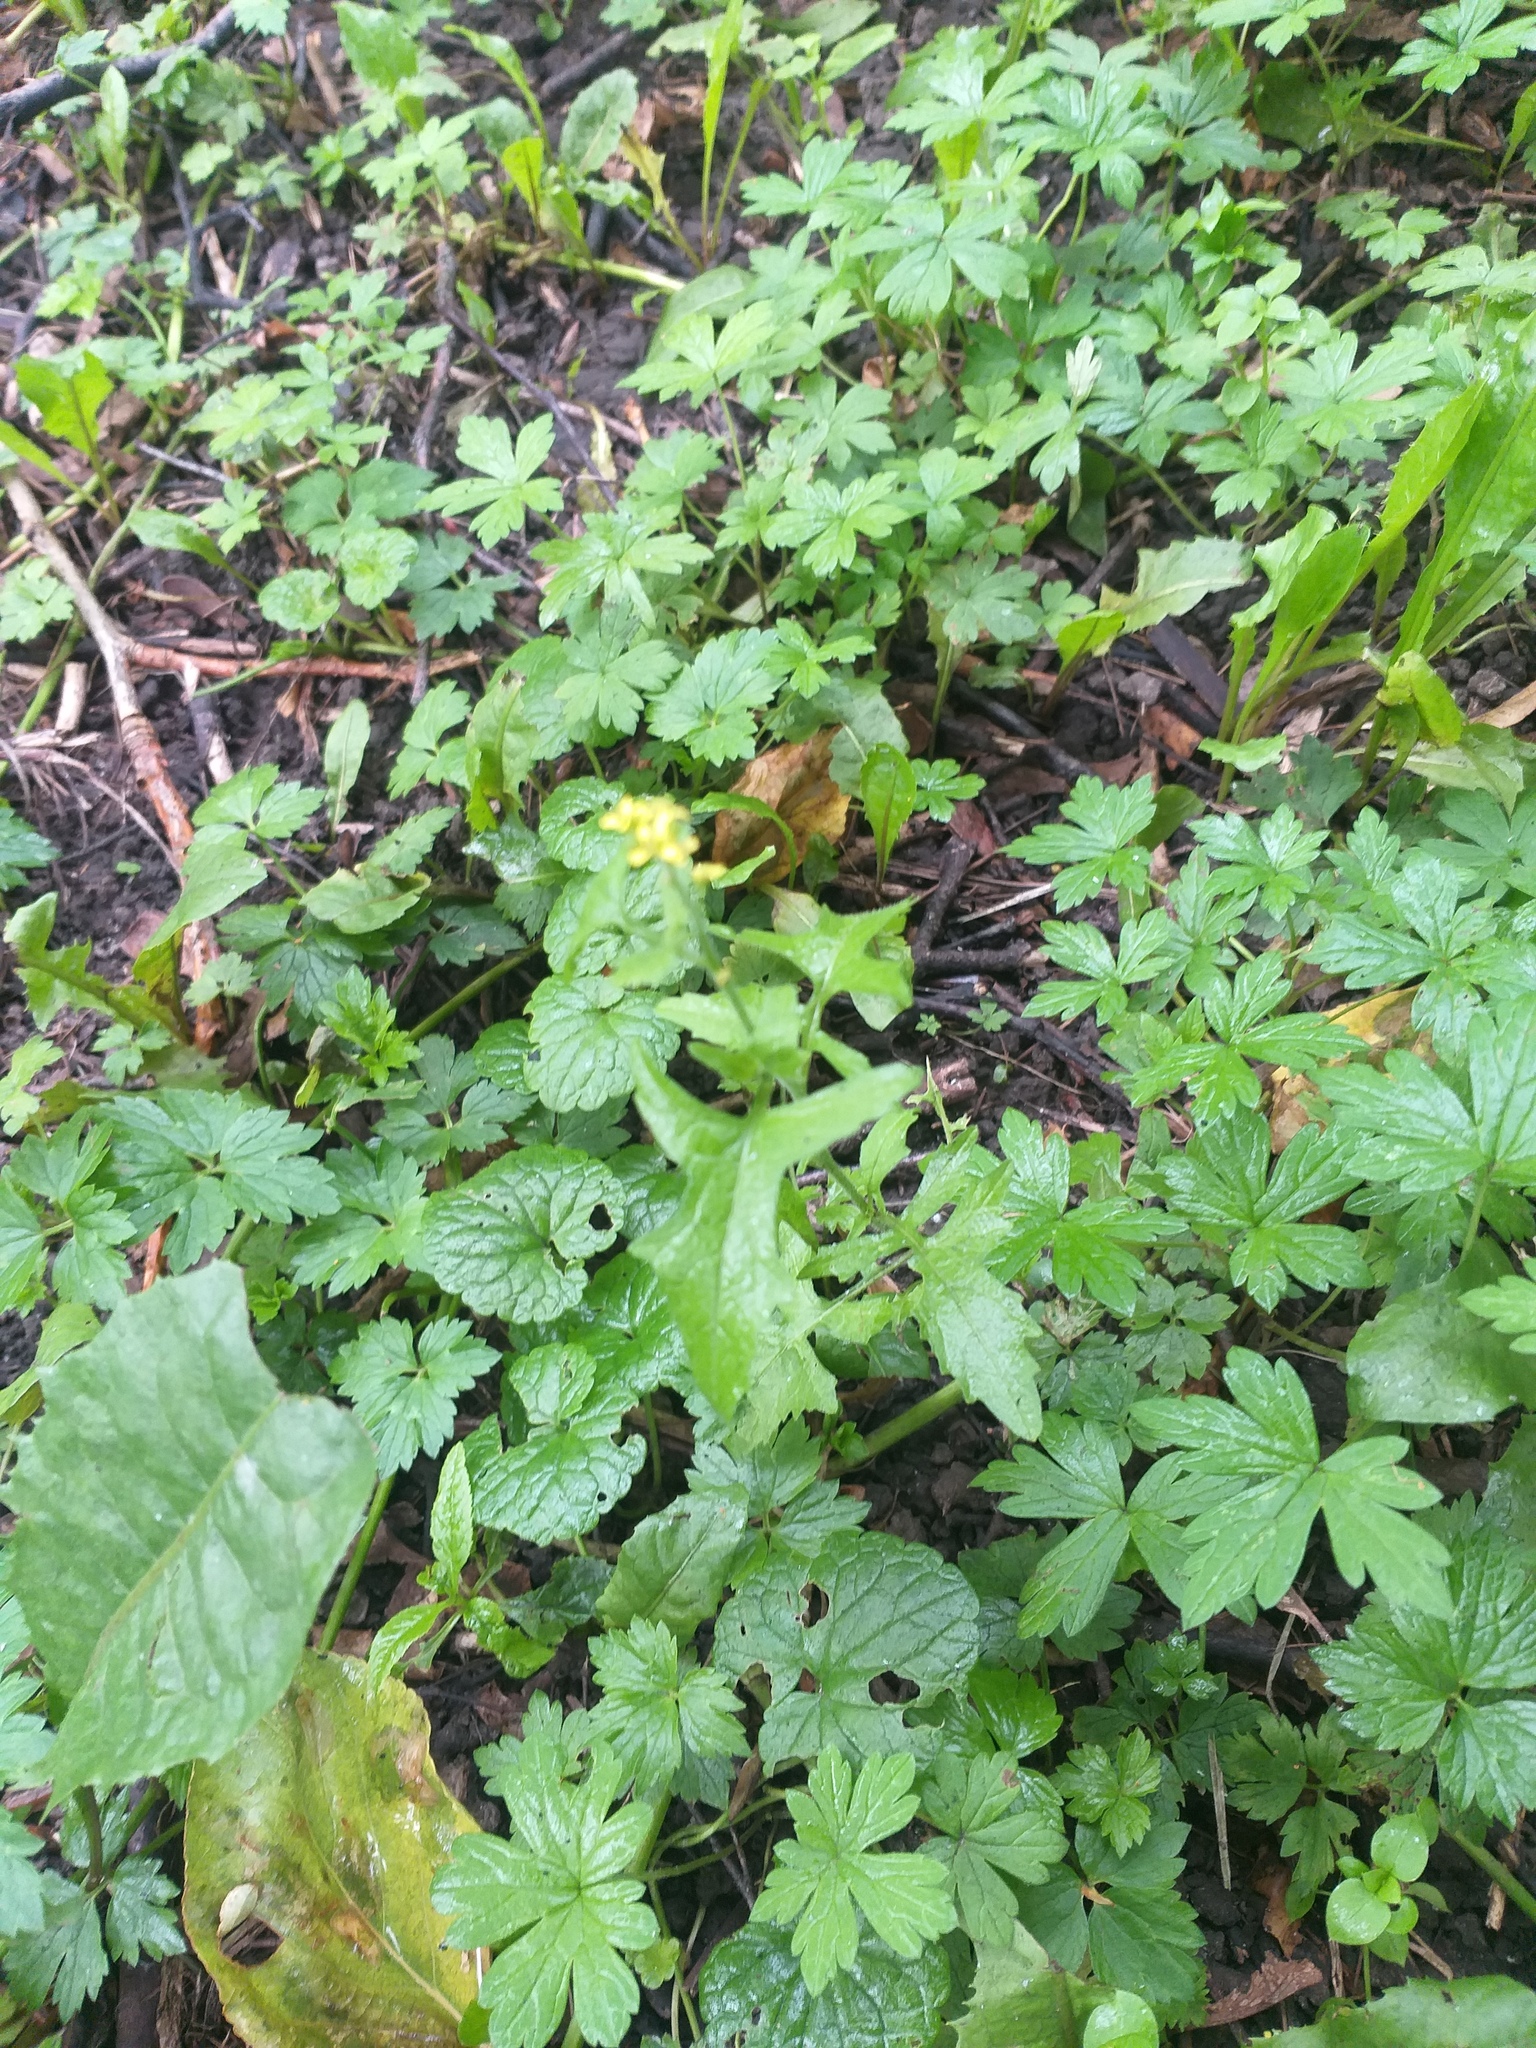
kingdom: Plantae
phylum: Tracheophyta
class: Magnoliopsida
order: Brassicales
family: Brassicaceae
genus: Sisymbrium
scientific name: Sisymbrium officinale
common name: Hedge mustard
